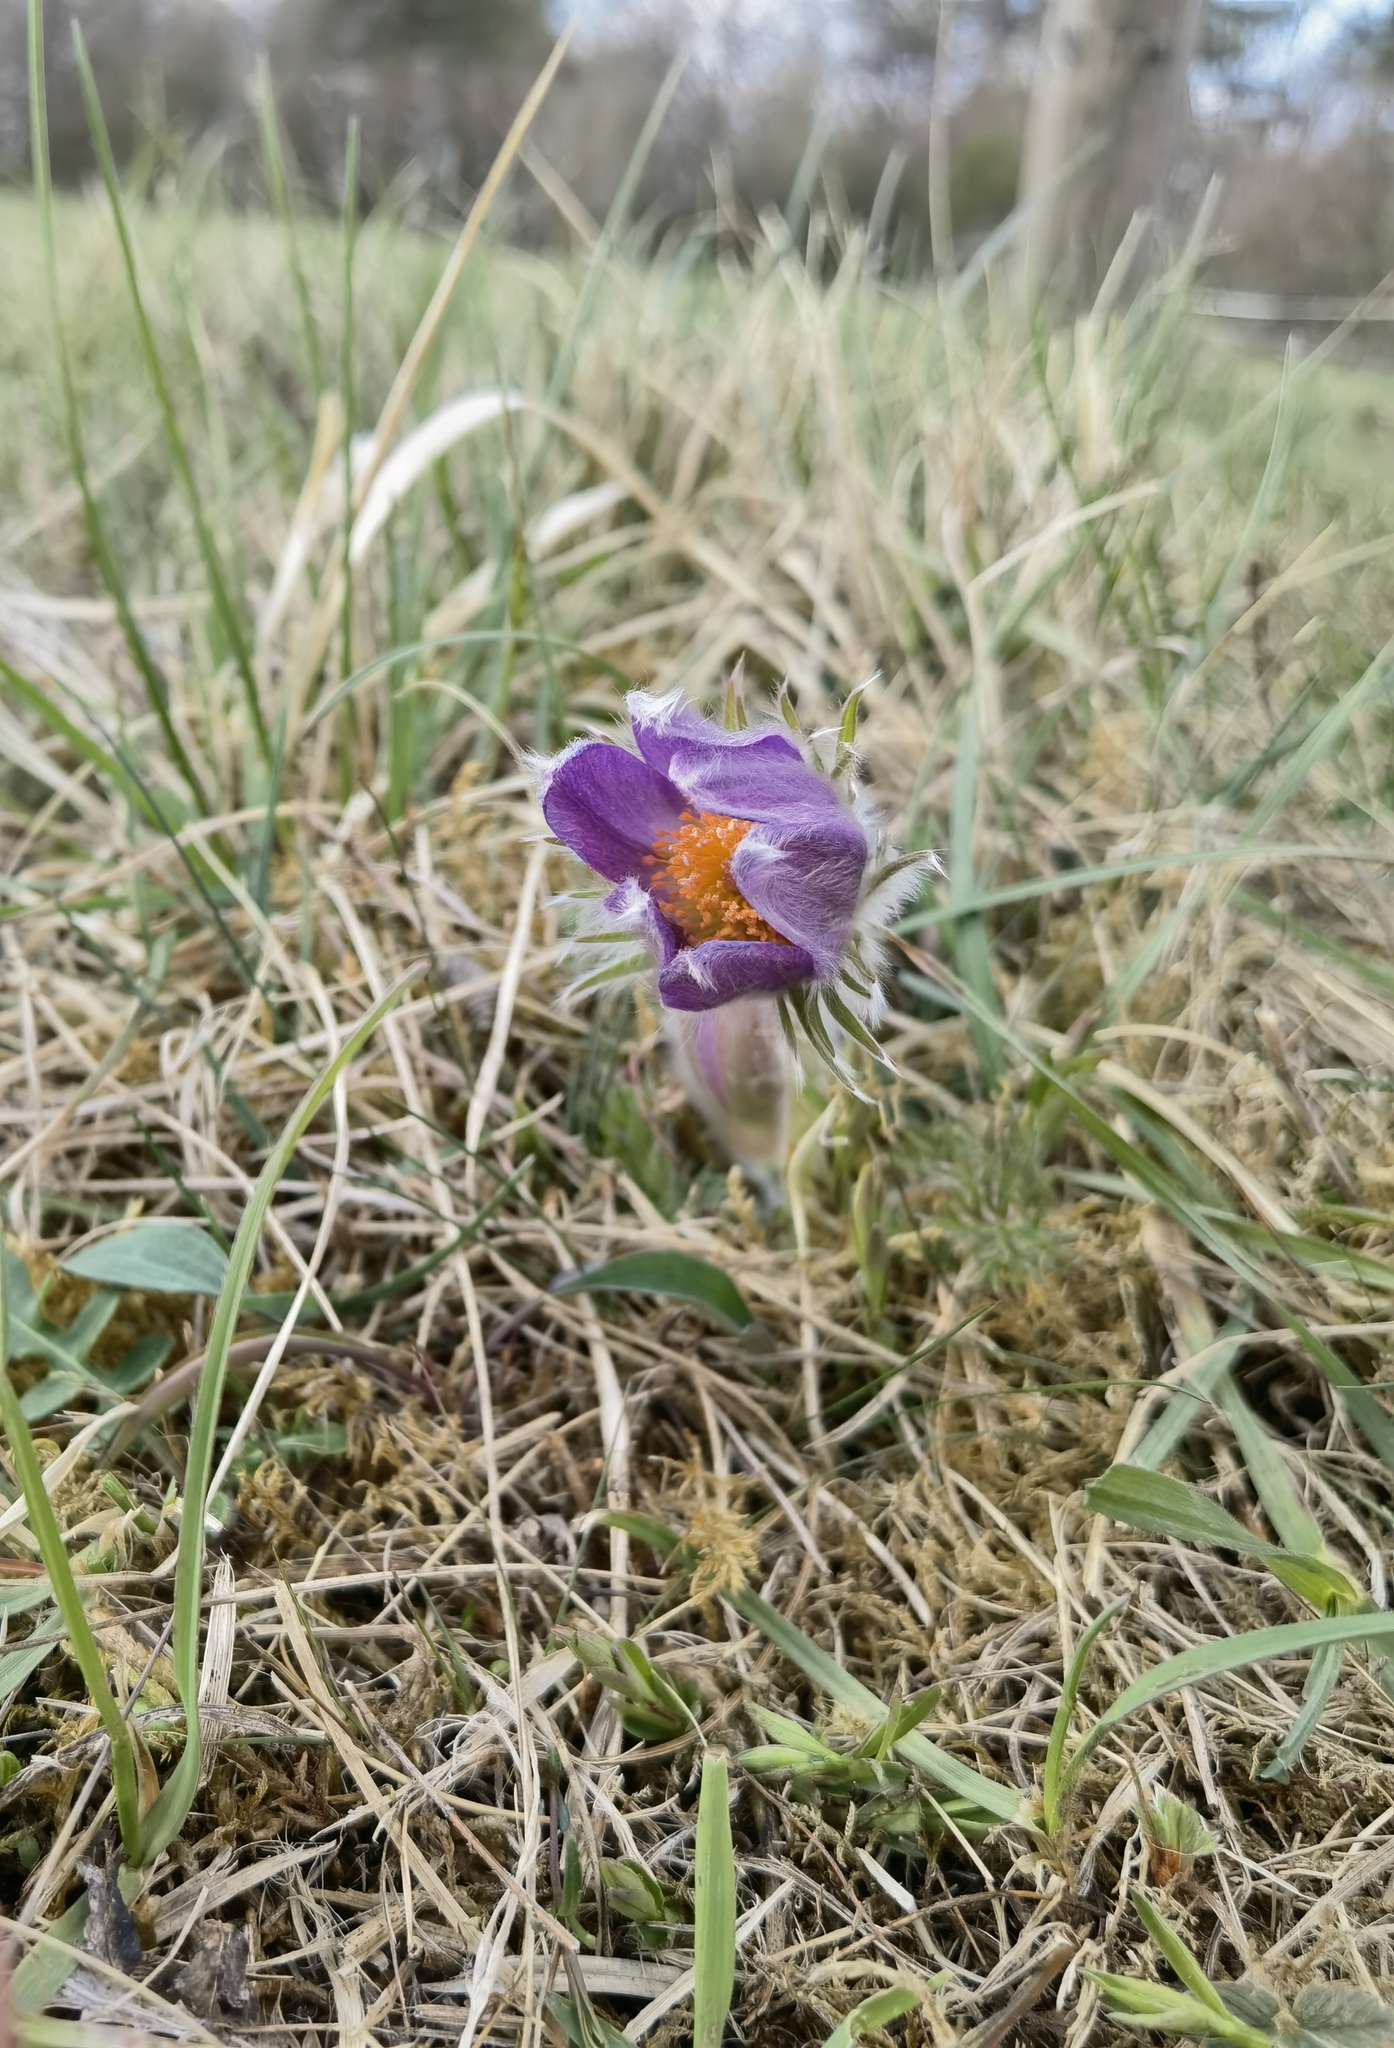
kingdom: Plantae
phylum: Tracheophyta
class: Magnoliopsida
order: Ranunculales
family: Ranunculaceae
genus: Pulsatilla
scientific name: Pulsatilla vulgaris
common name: Pasqueflower
